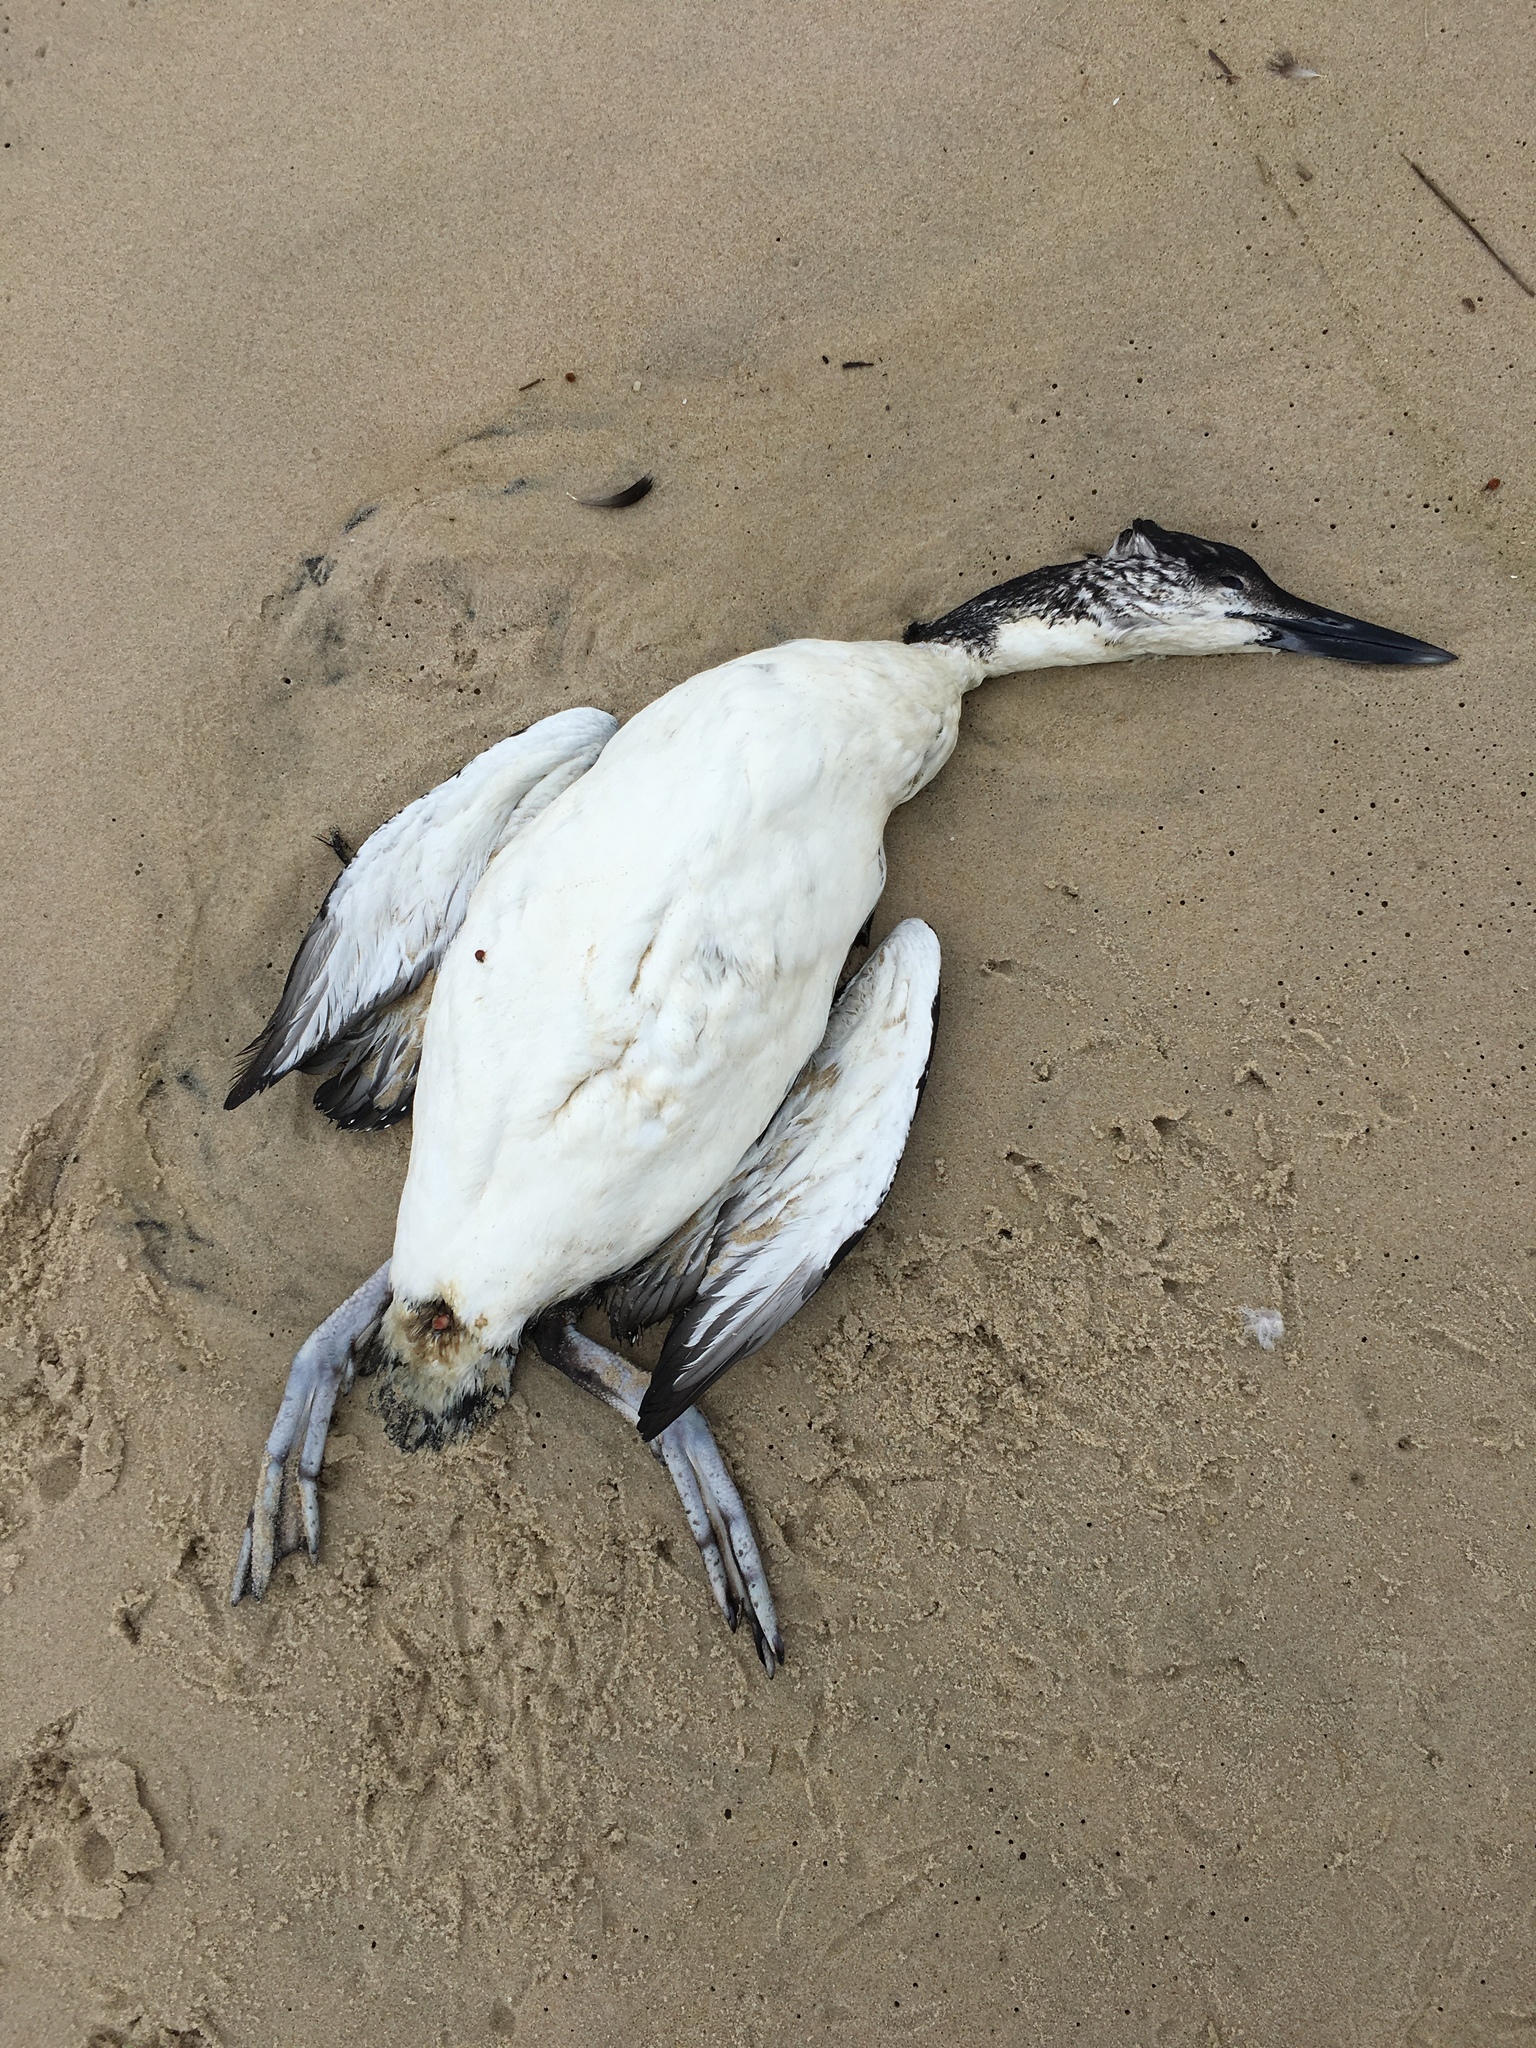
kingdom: Animalia
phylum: Chordata
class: Aves
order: Gaviiformes
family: Gaviidae
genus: Gavia
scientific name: Gavia immer
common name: Common loon
